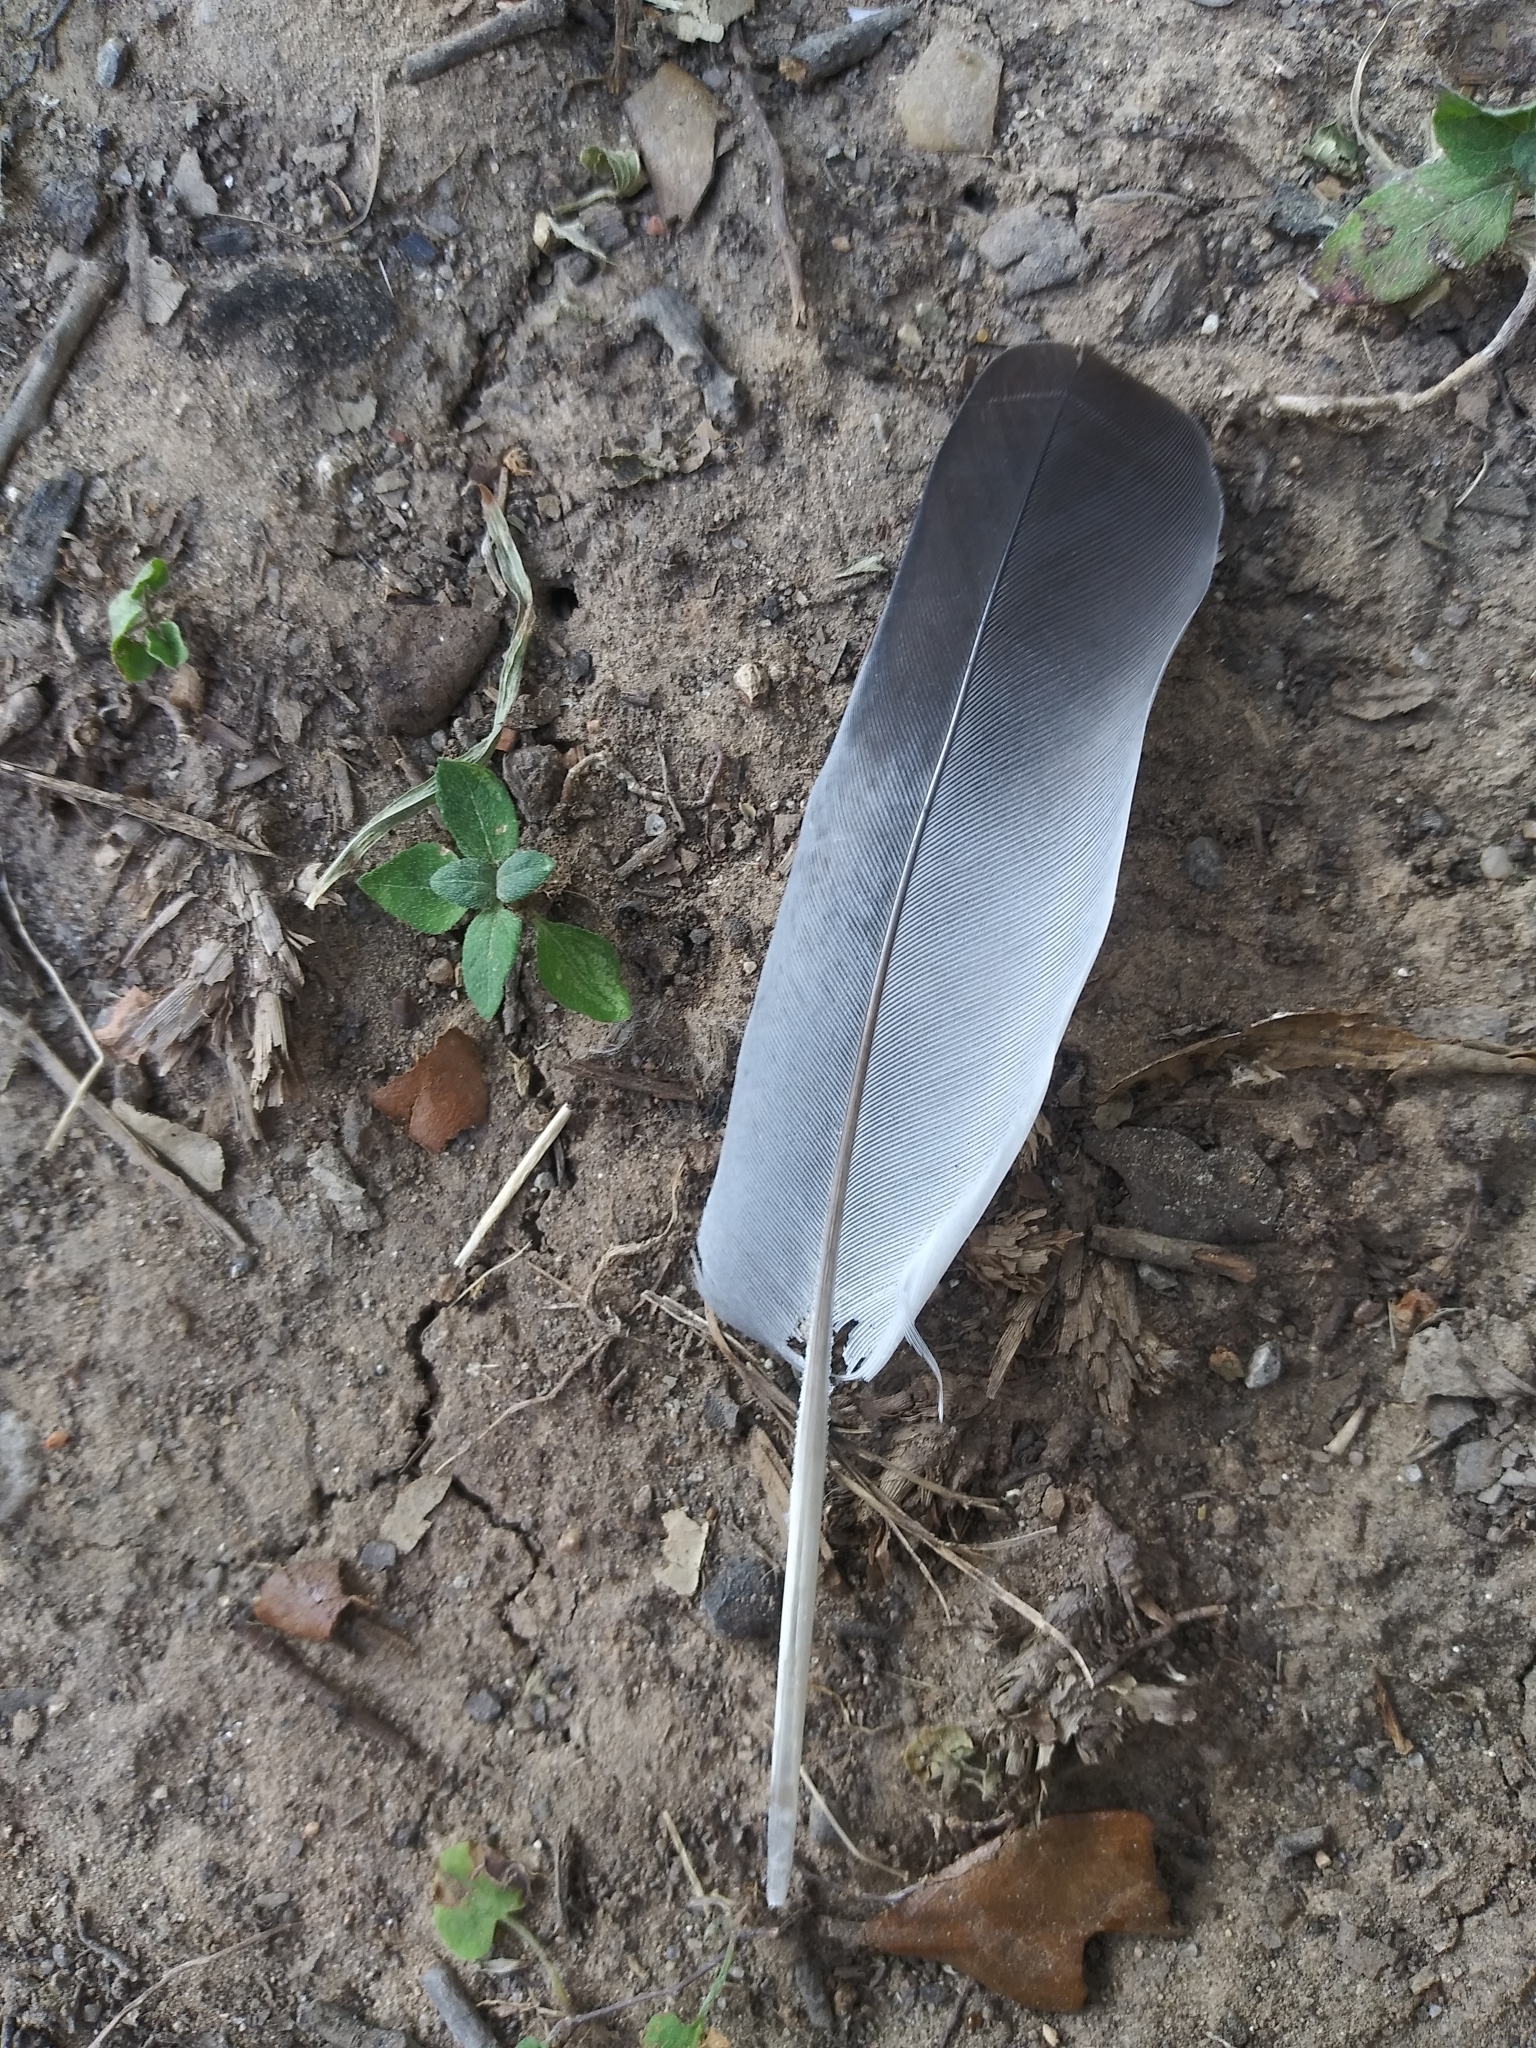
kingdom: Animalia
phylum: Chordata
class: Aves
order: Columbiformes
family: Columbidae
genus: Columba
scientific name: Columba livia
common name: Rock pigeon
